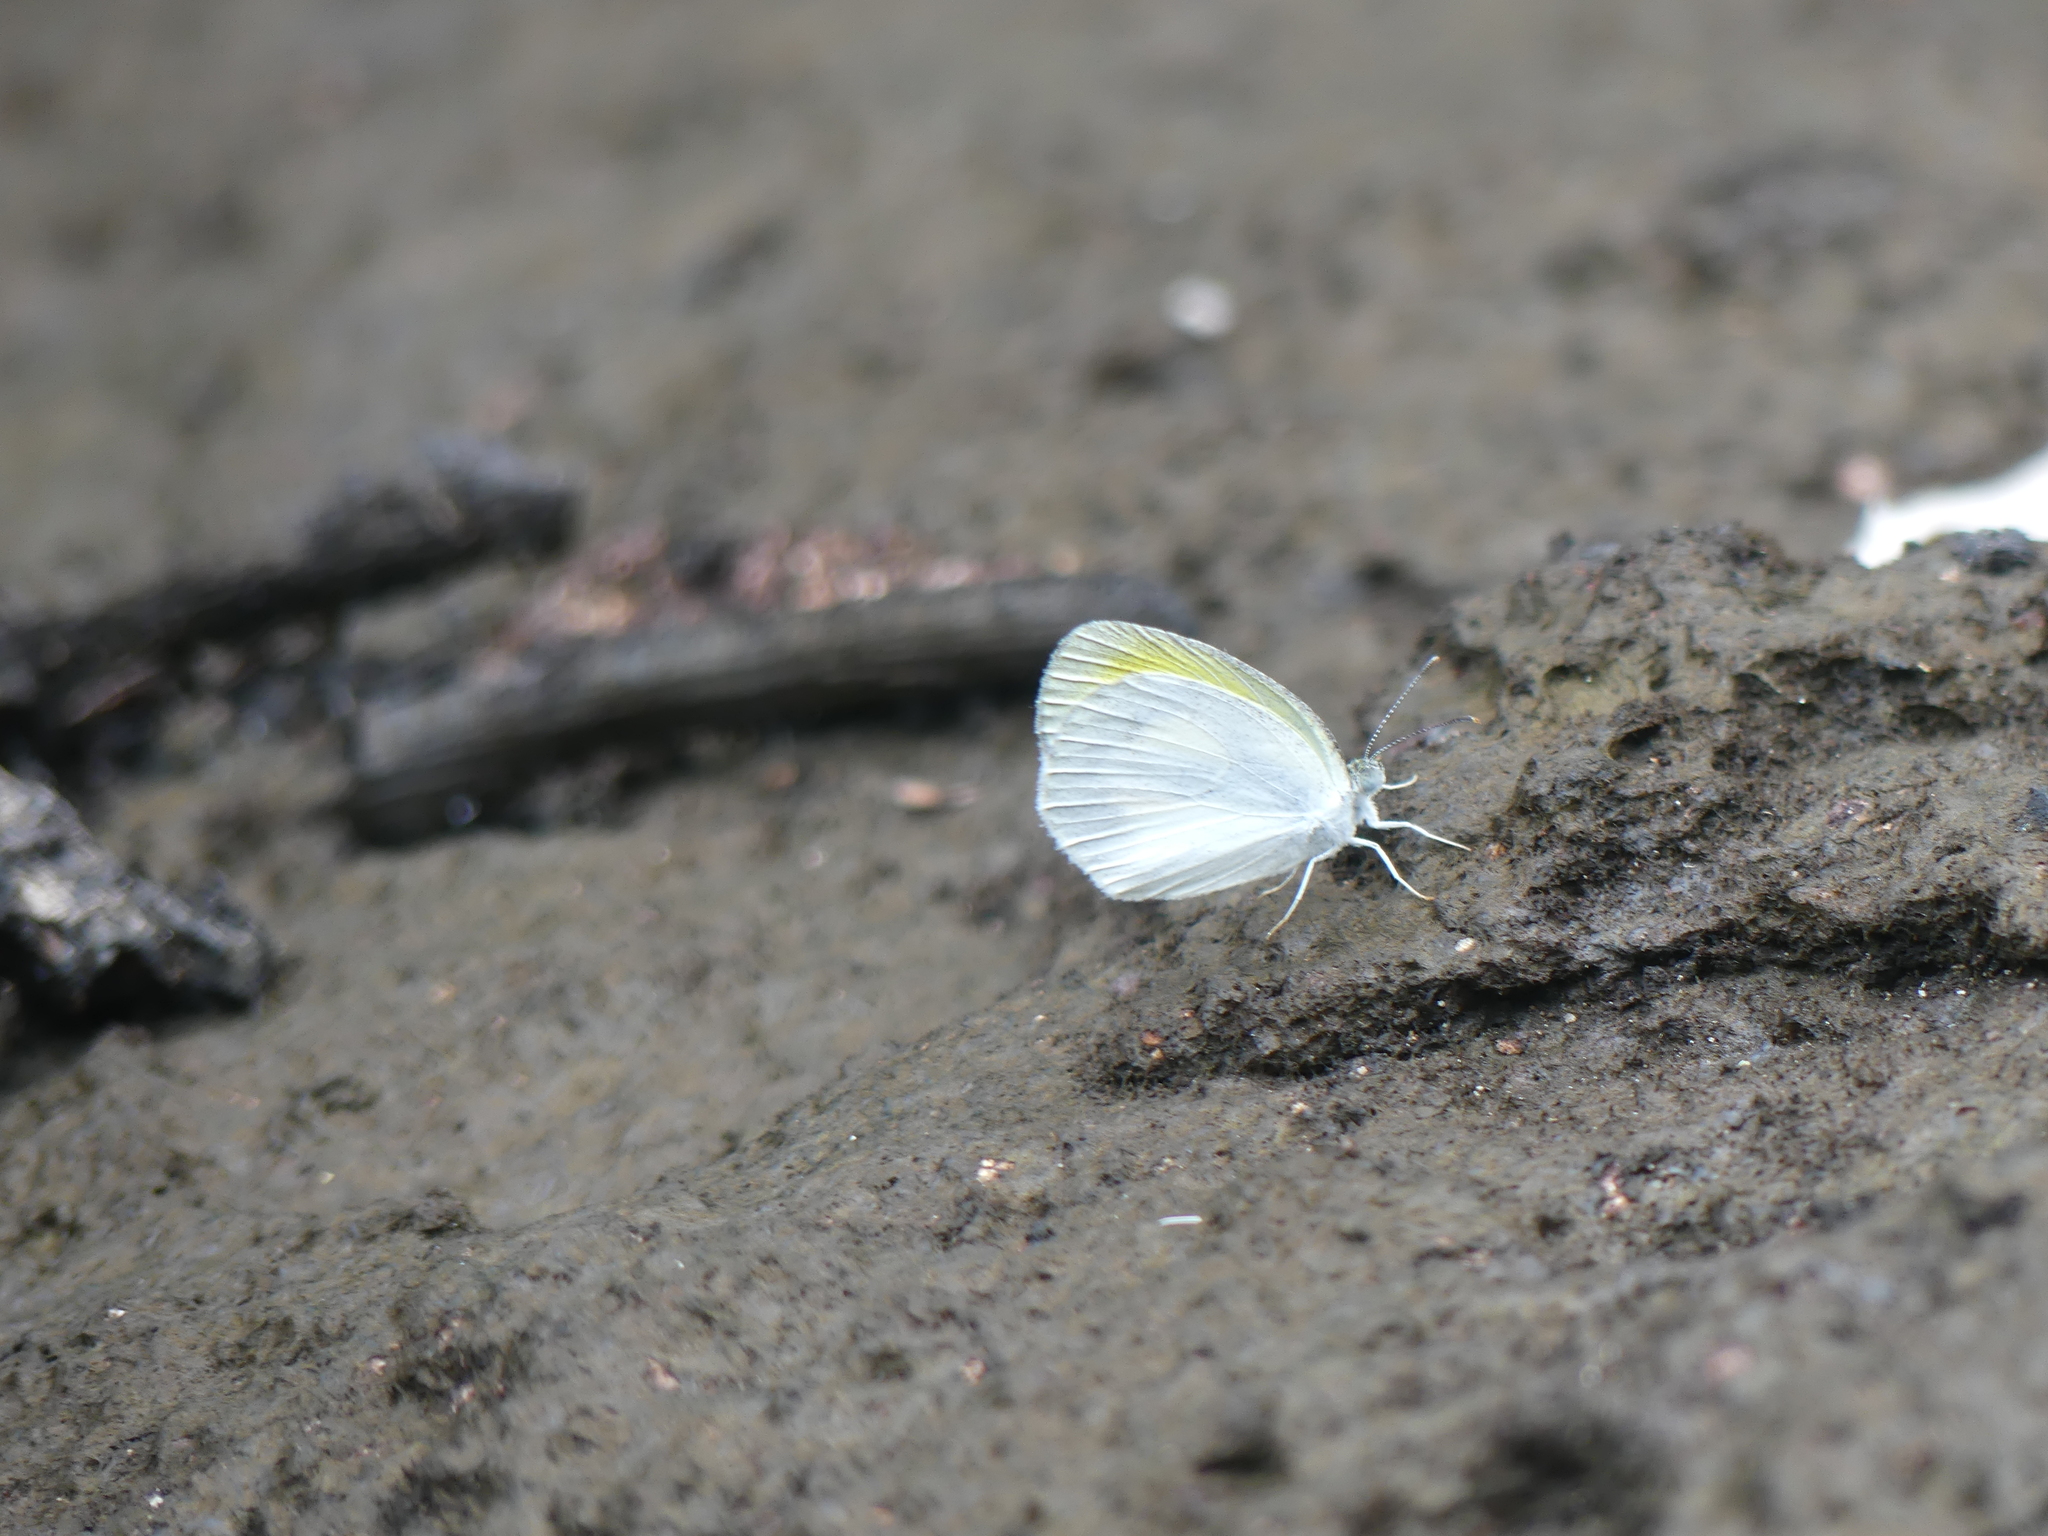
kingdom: Animalia
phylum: Arthropoda
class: Insecta
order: Lepidoptera
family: Pieridae
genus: Eurema
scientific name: Eurema elathea
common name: Banded yellow
